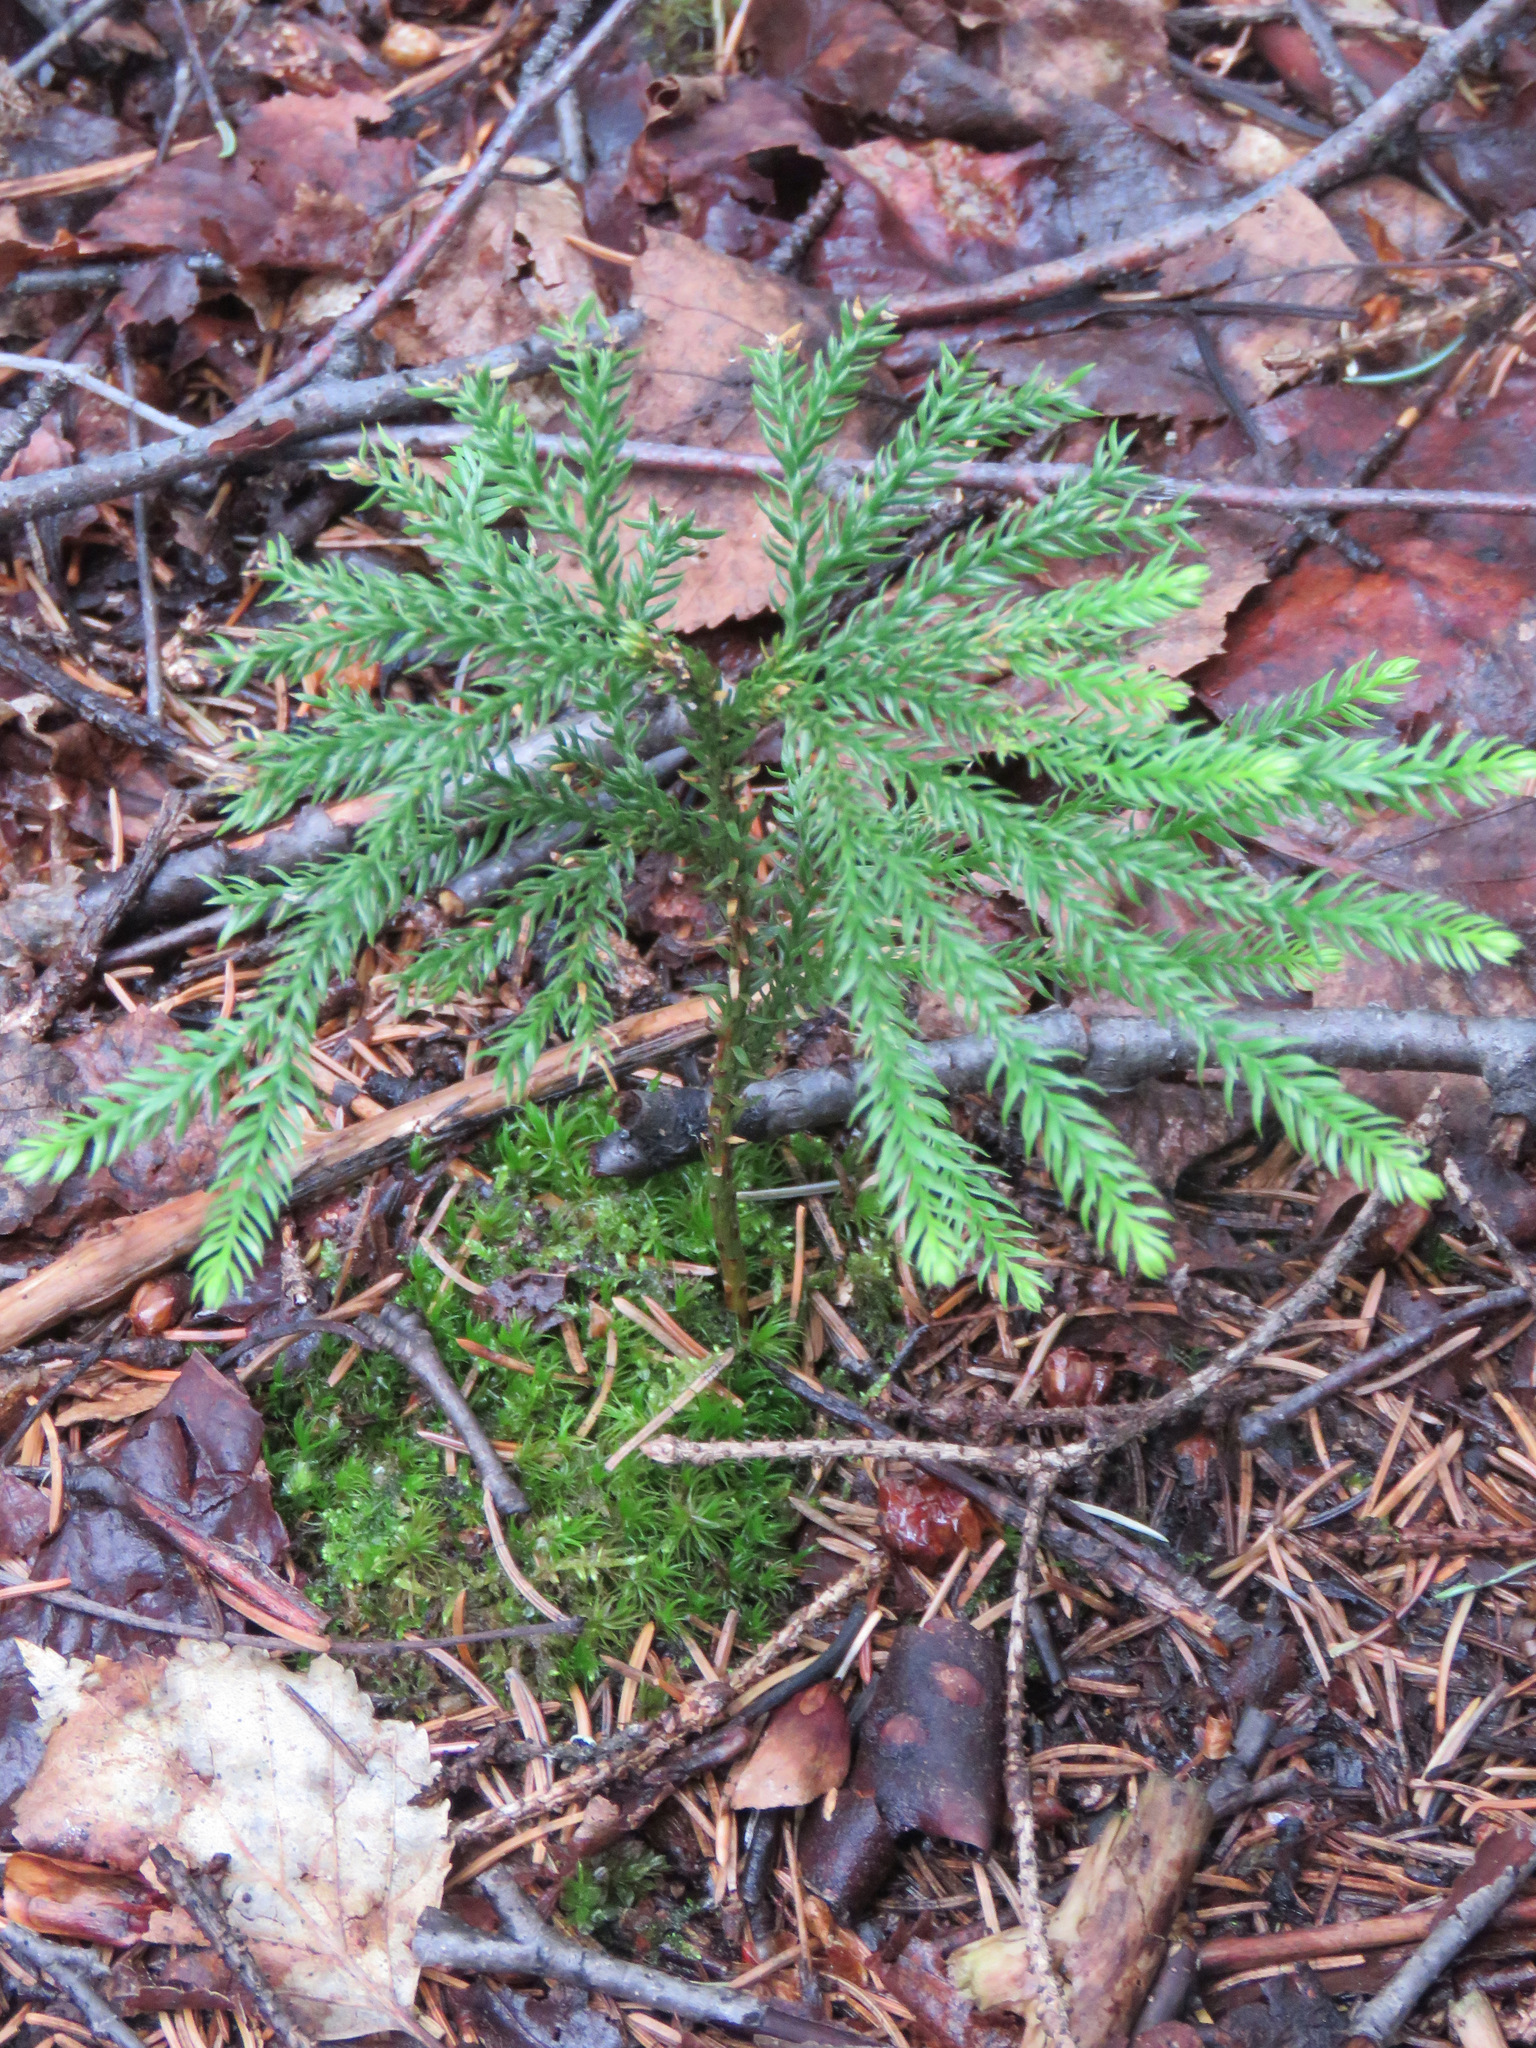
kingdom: Plantae
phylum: Tracheophyta
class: Lycopodiopsida
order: Lycopodiales
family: Lycopodiaceae
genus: Dendrolycopodium
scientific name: Dendrolycopodium dendroideum
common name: Northern tree-clubmoss
